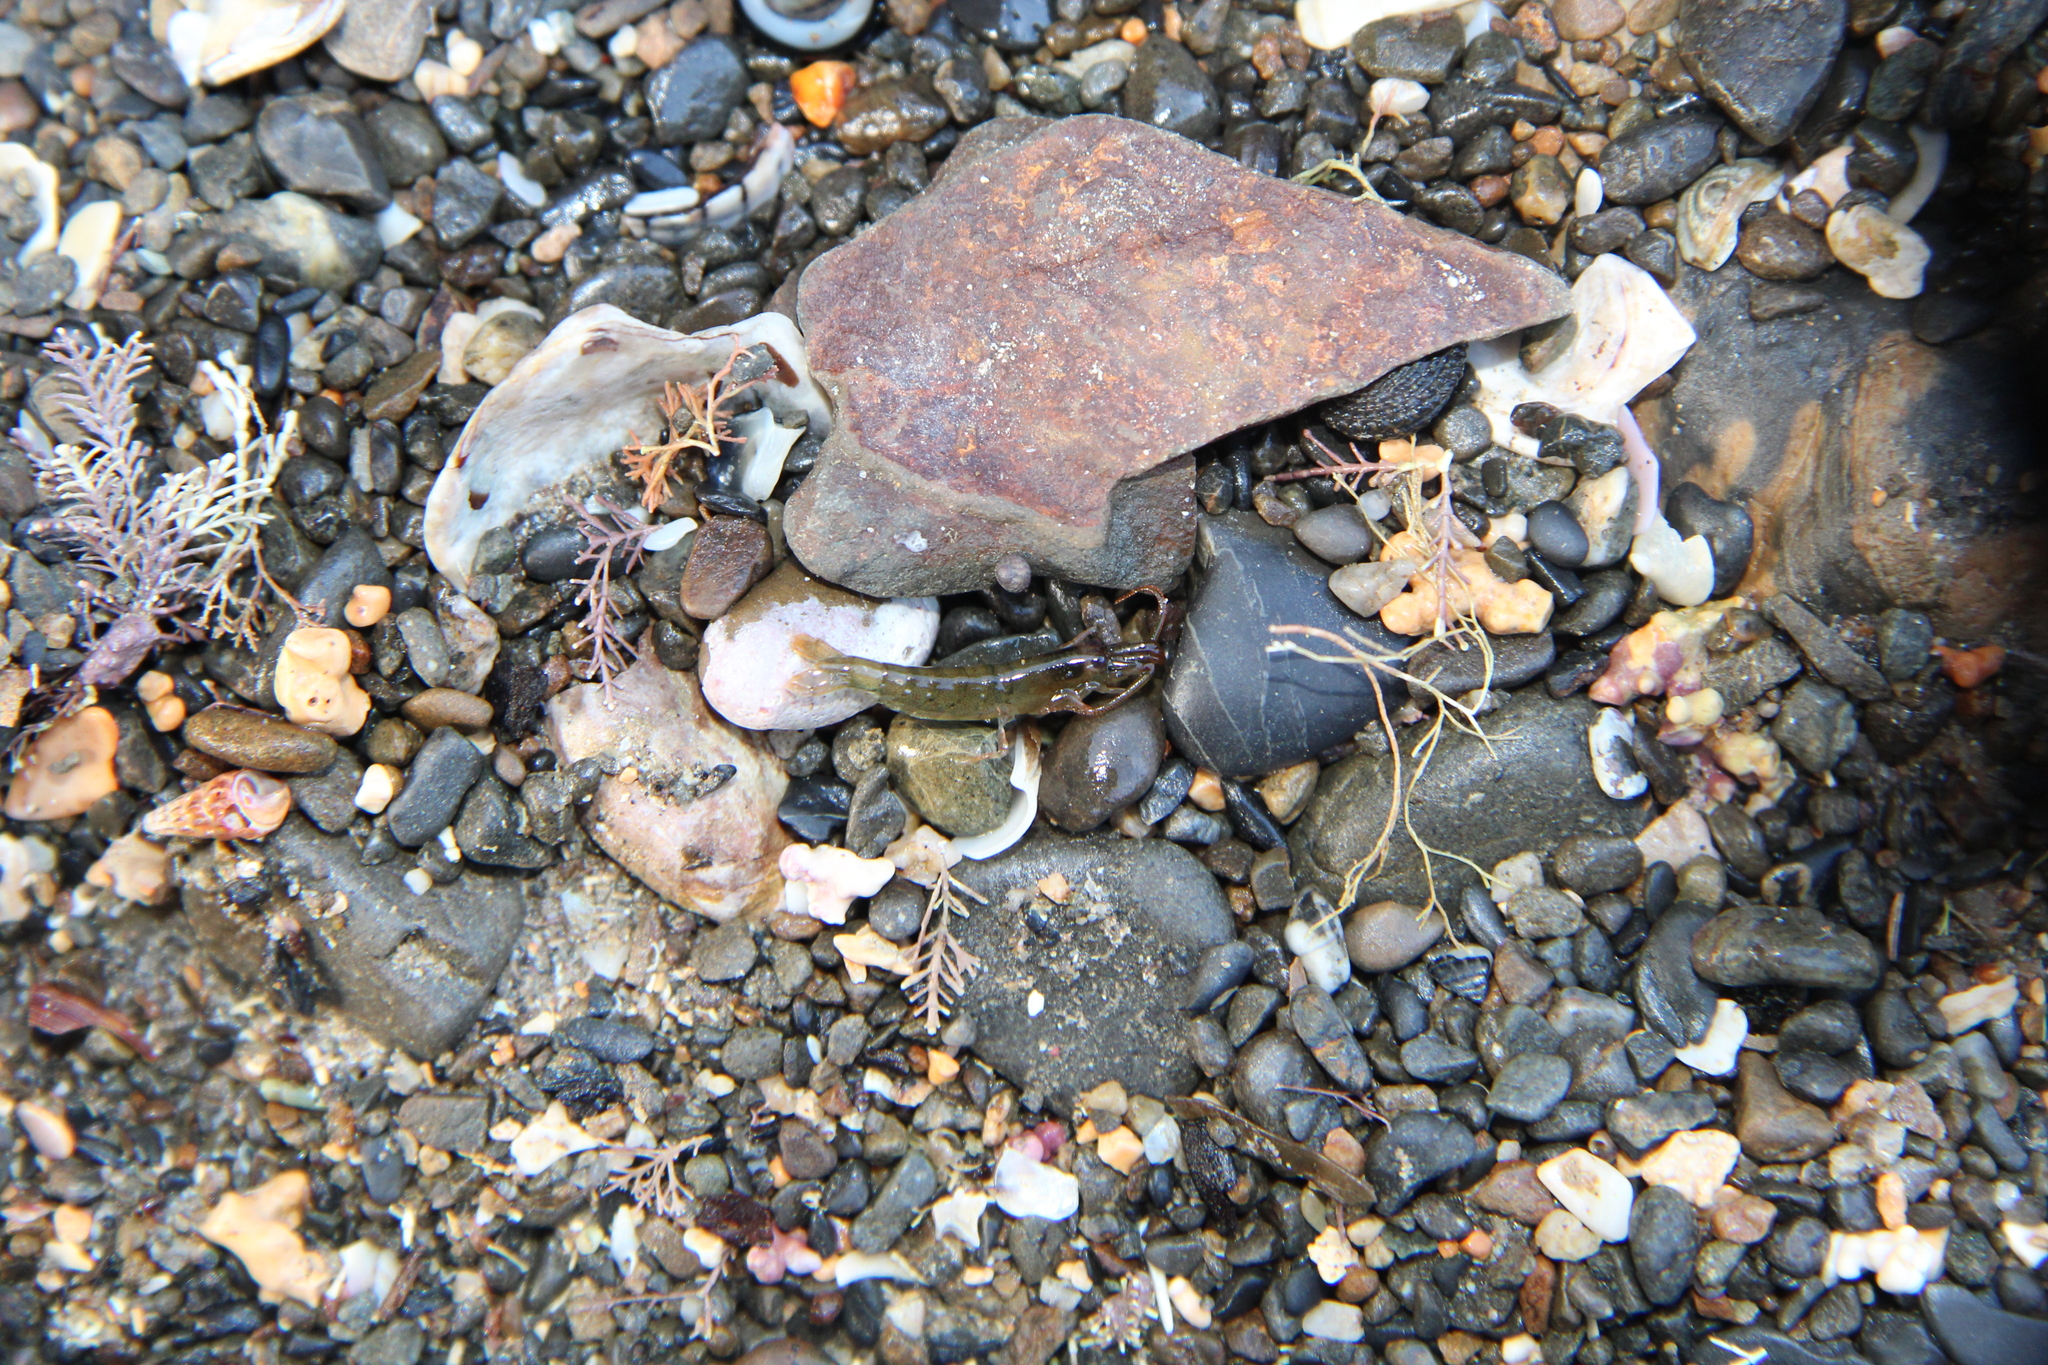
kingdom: Animalia
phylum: Arthropoda
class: Malacostraca
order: Decapoda
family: Alpheidae
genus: Betaeopsis
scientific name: Betaeopsis aequimanus
